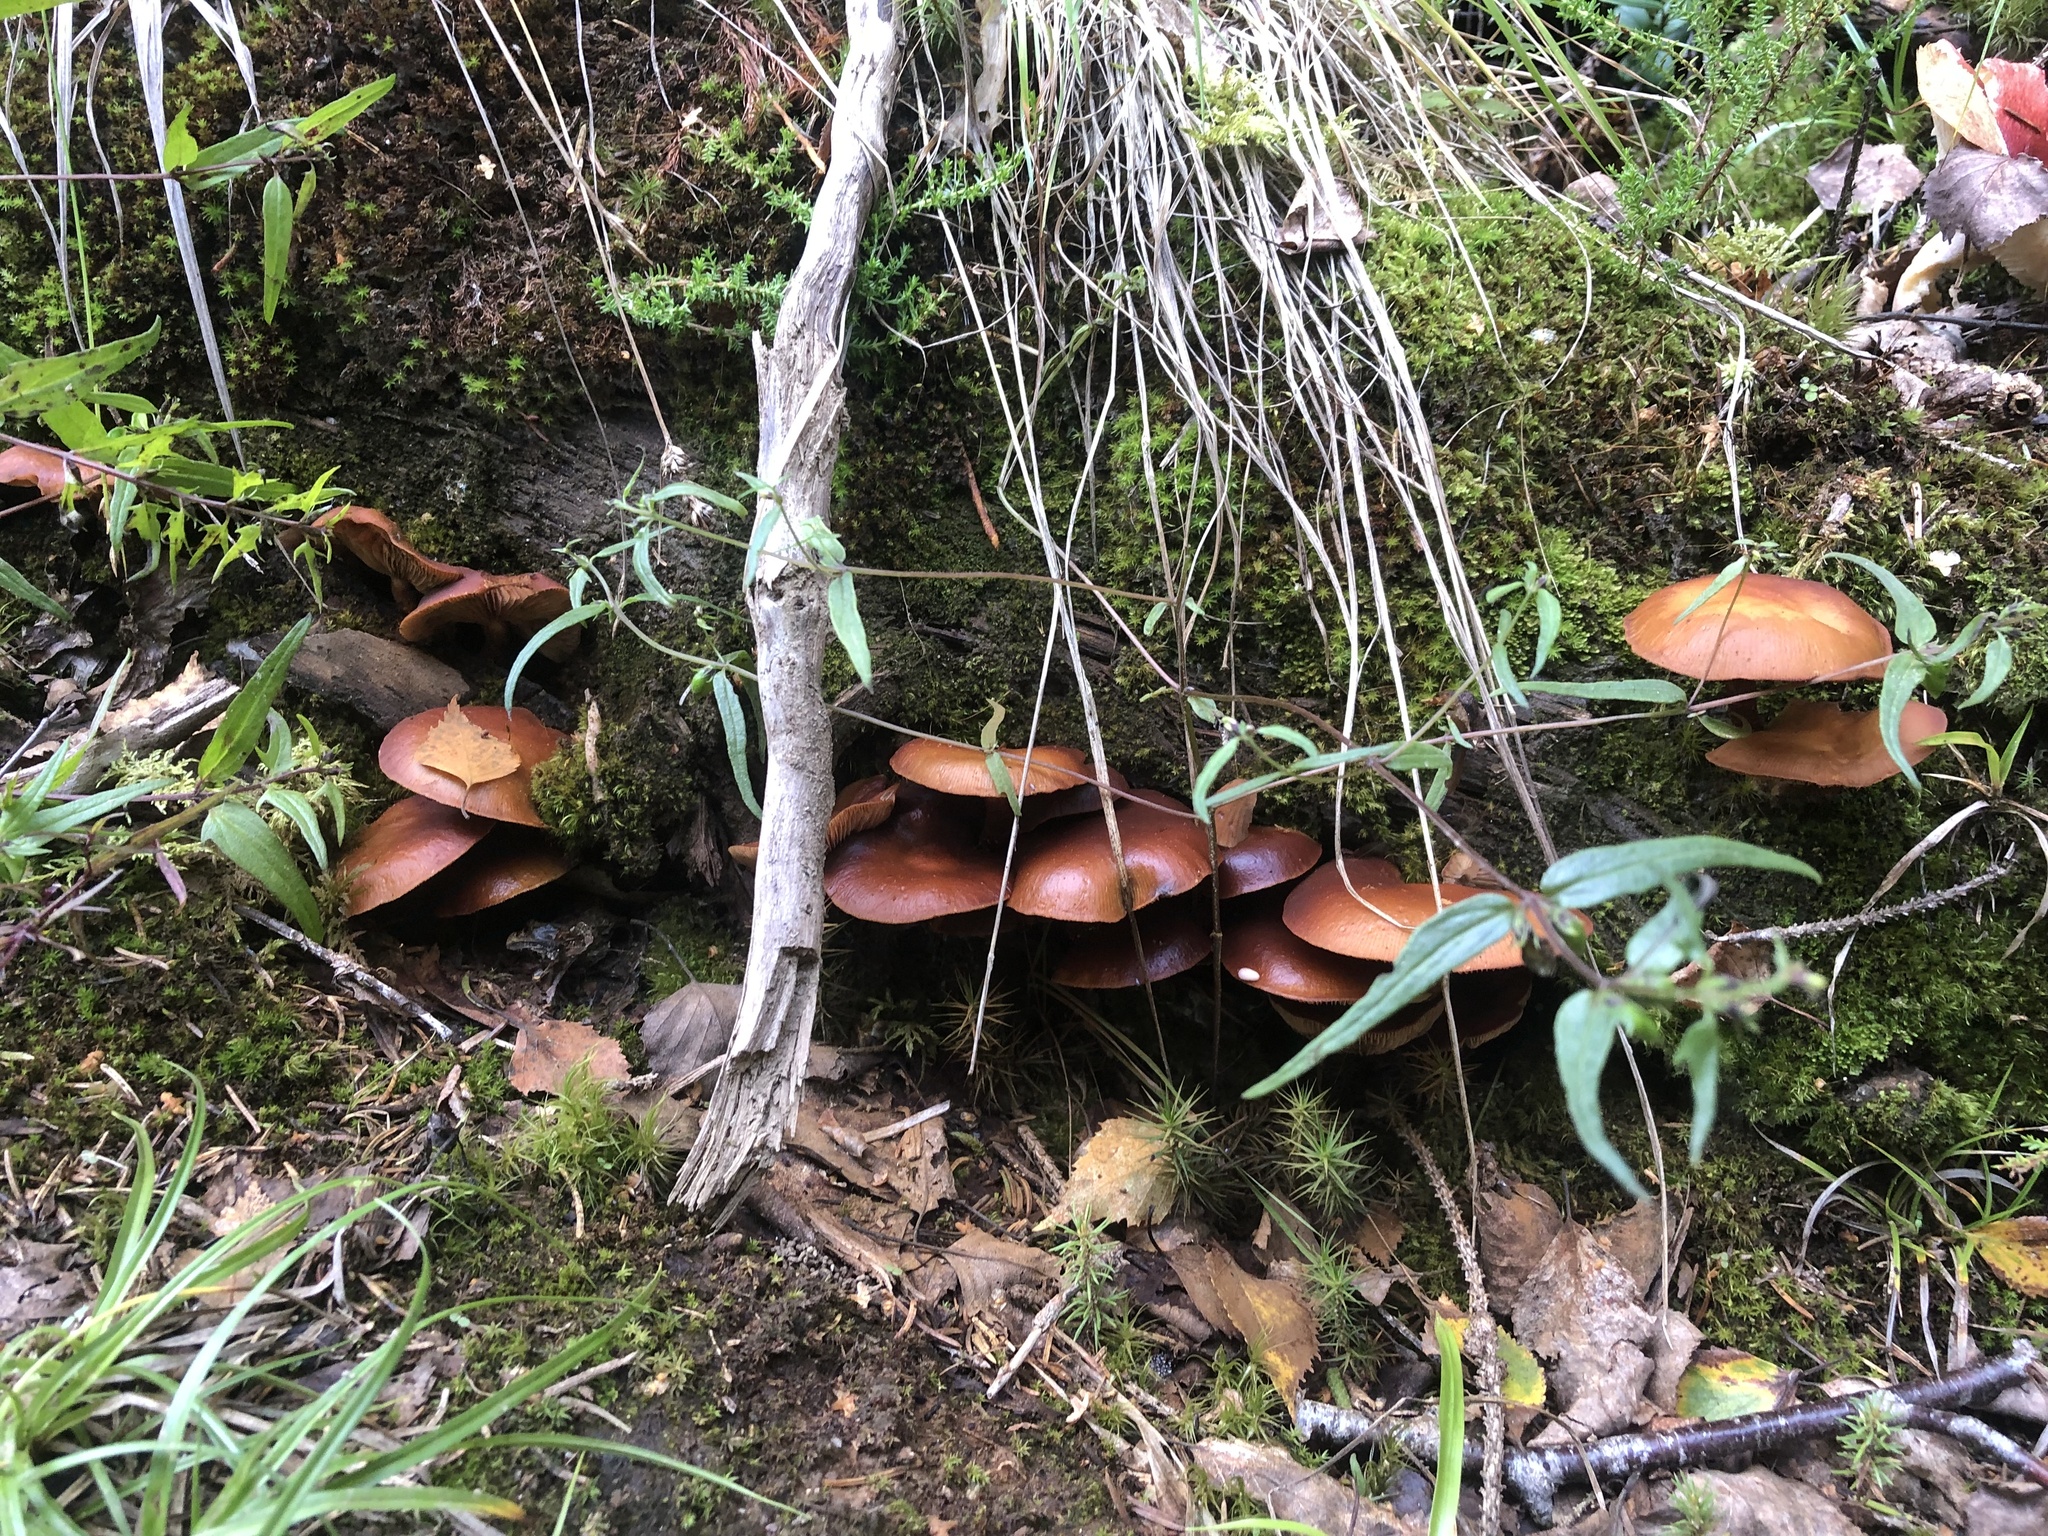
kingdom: Fungi
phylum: Basidiomycota
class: Agaricomycetes
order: Agaricales
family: Strophariaceae
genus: Kuehneromyces
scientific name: Kuehneromyces mutabilis
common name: Sheathed woodtuft
